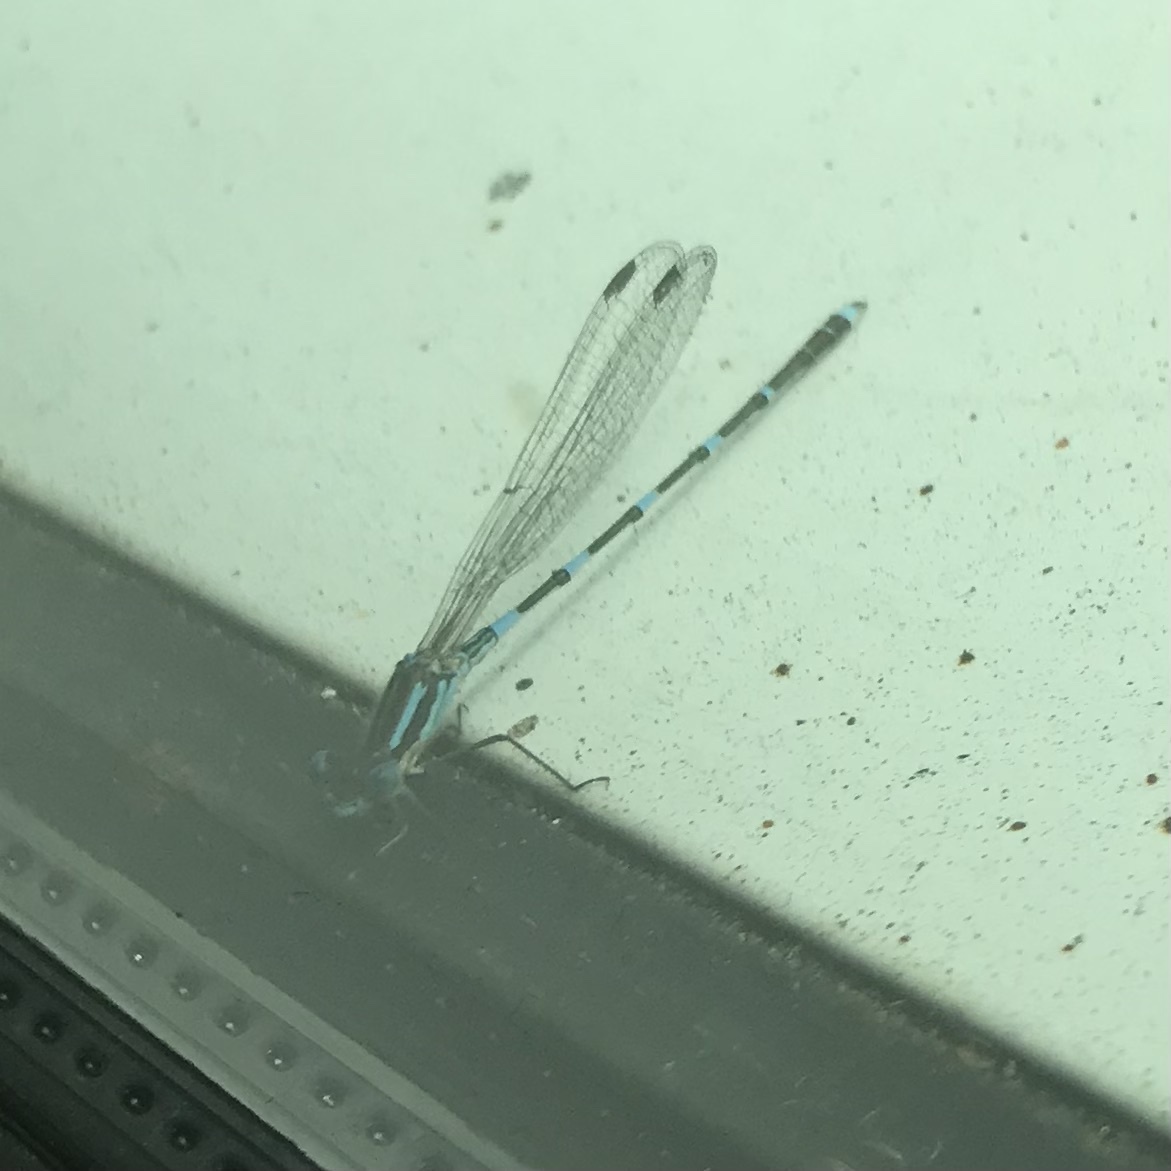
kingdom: Animalia
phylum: Arthropoda
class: Insecta
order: Odonata
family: Lestidae
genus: Austrolestes
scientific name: Austrolestes leda
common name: Wandering ringtail
